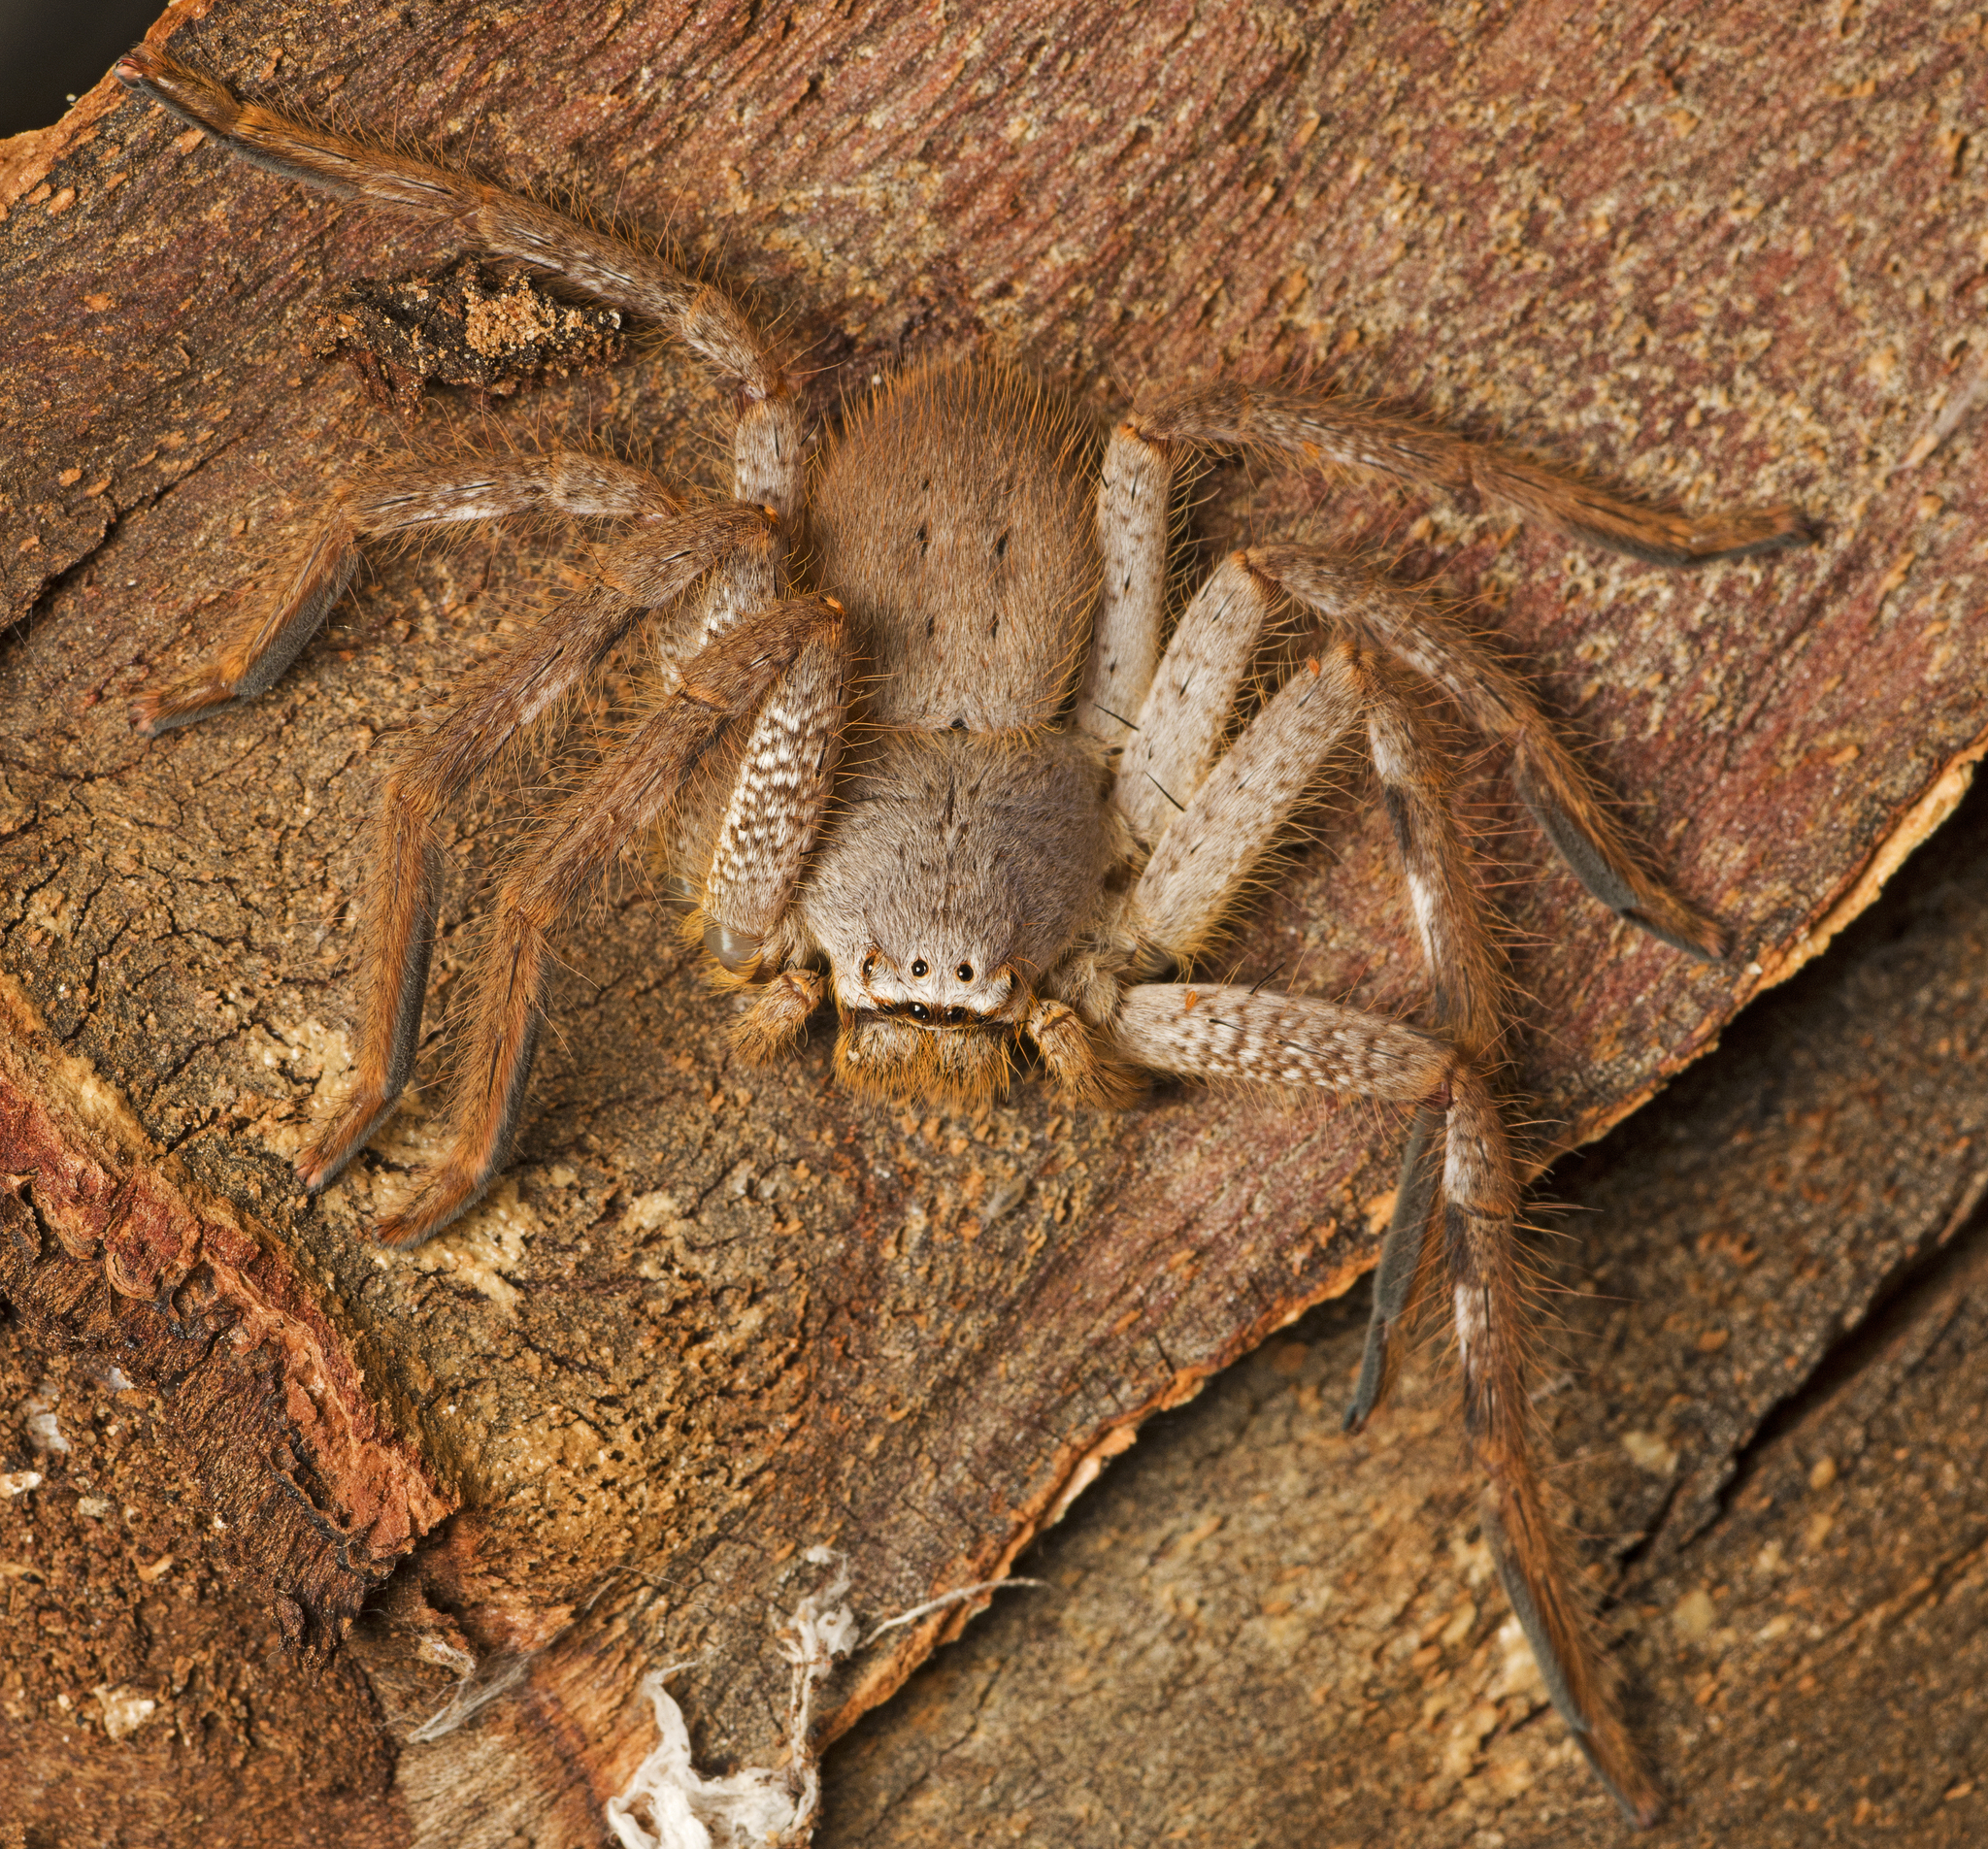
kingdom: Animalia
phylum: Arthropoda
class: Arachnida
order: Araneae
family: Sparassidae
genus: Isopedella
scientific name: Isopedella inola
